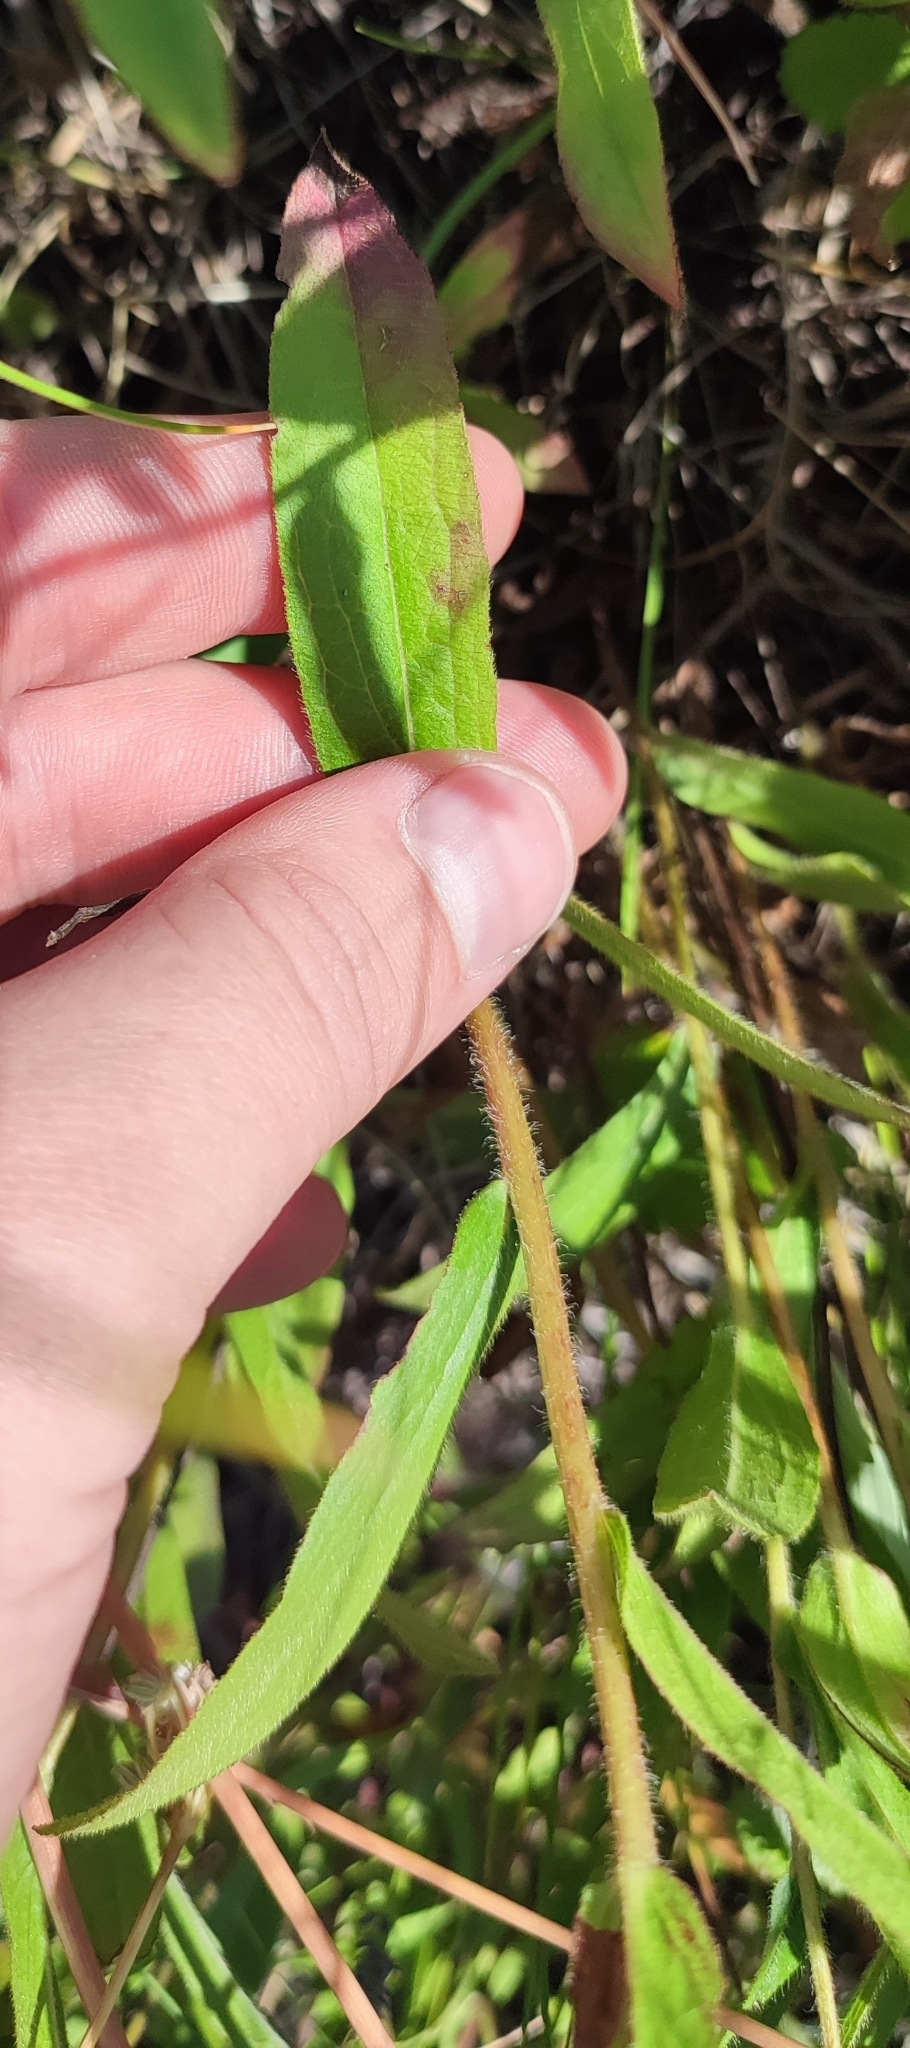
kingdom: Plantae
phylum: Tracheophyta
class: Magnoliopsida
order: Asterales
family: Asteraceae
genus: Pentanema
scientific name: Pentanema hirtum
